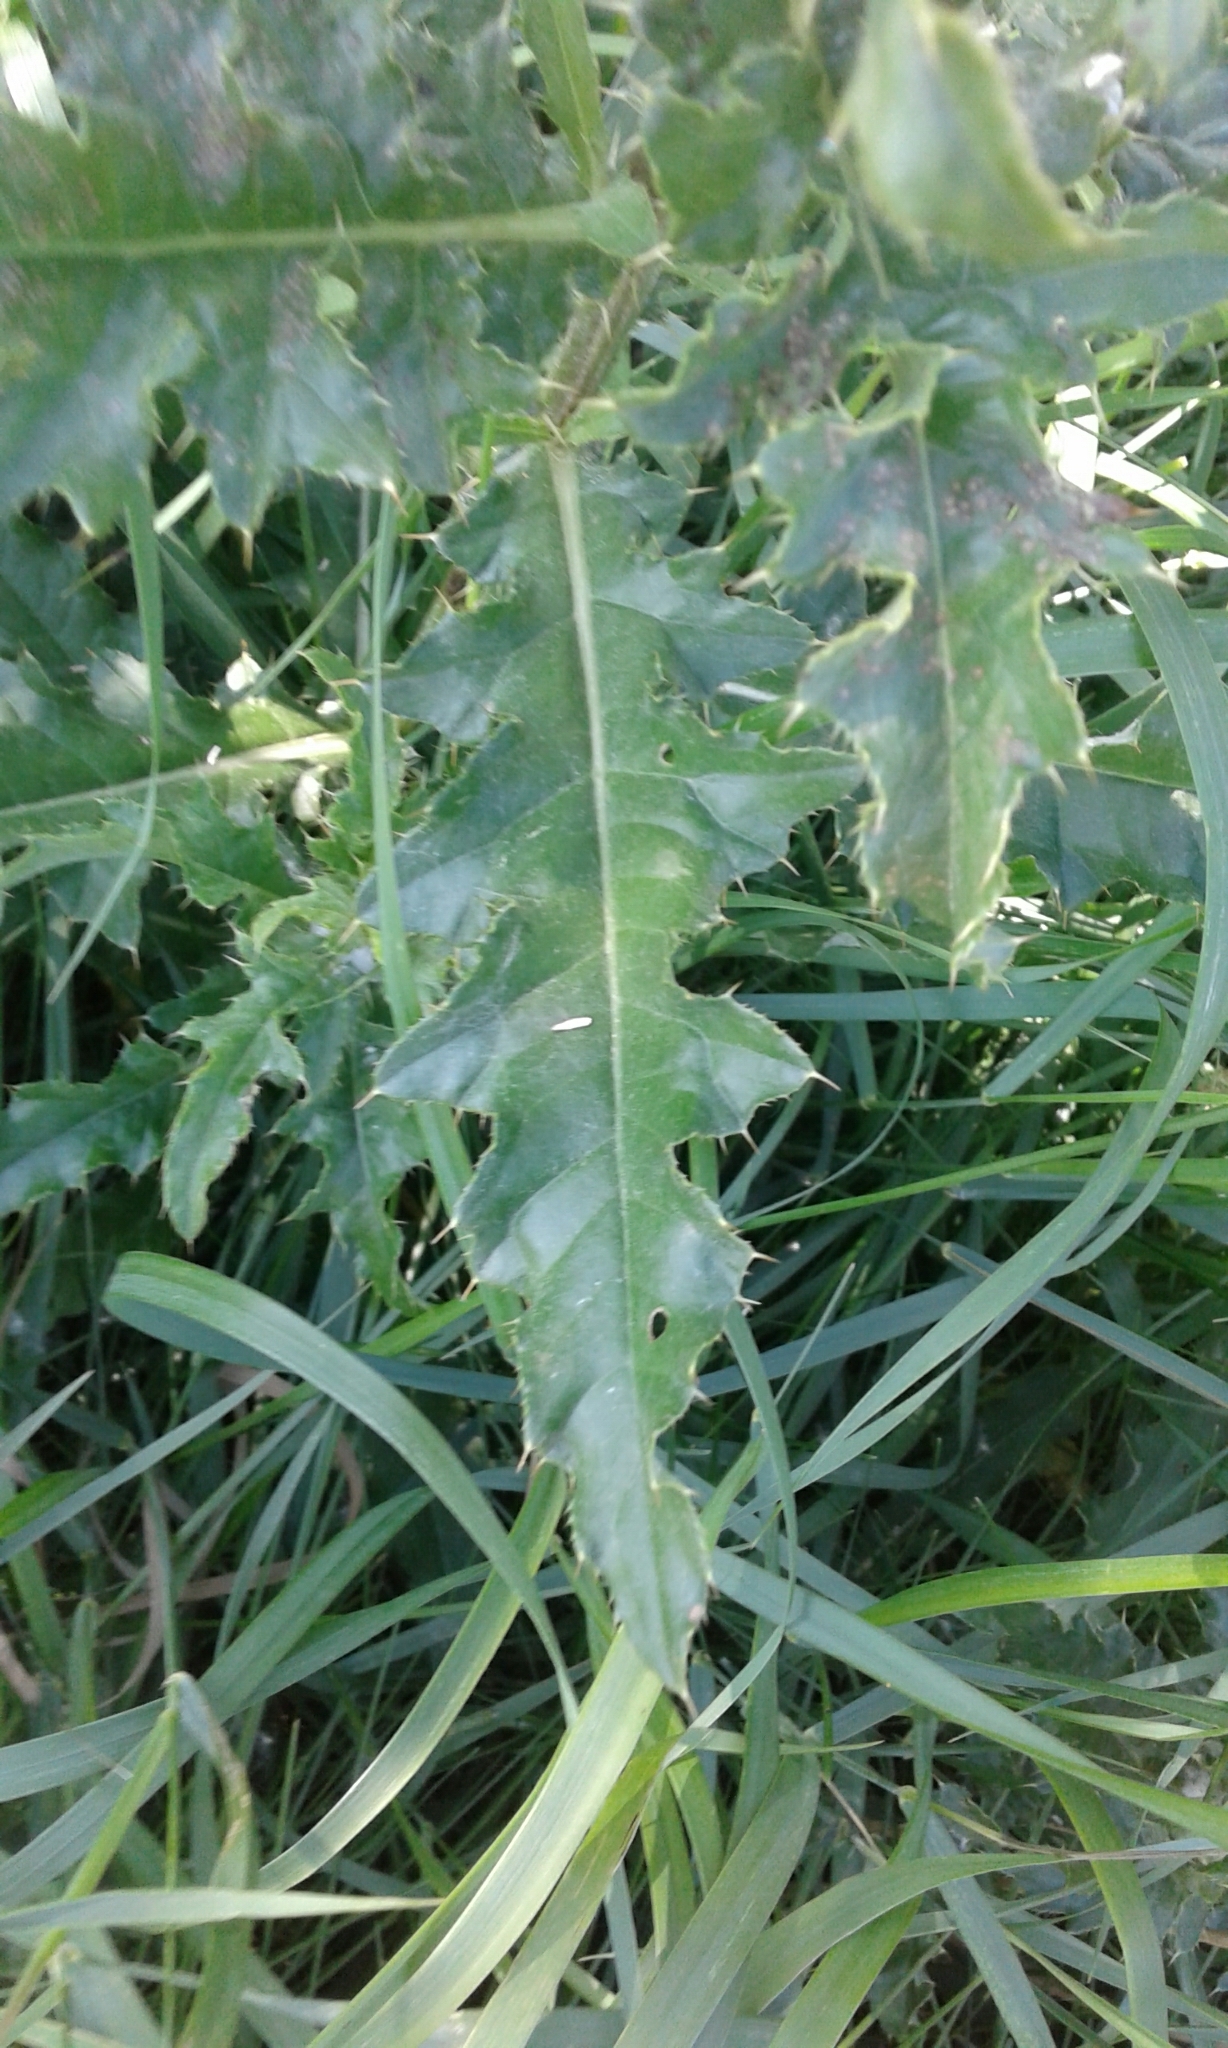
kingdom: Plantae
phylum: Tracheophyta
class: Magnoliopsida
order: Asterales
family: Asteraceae
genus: Cirsium
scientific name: Cirsium arvense
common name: Creeping thistle
